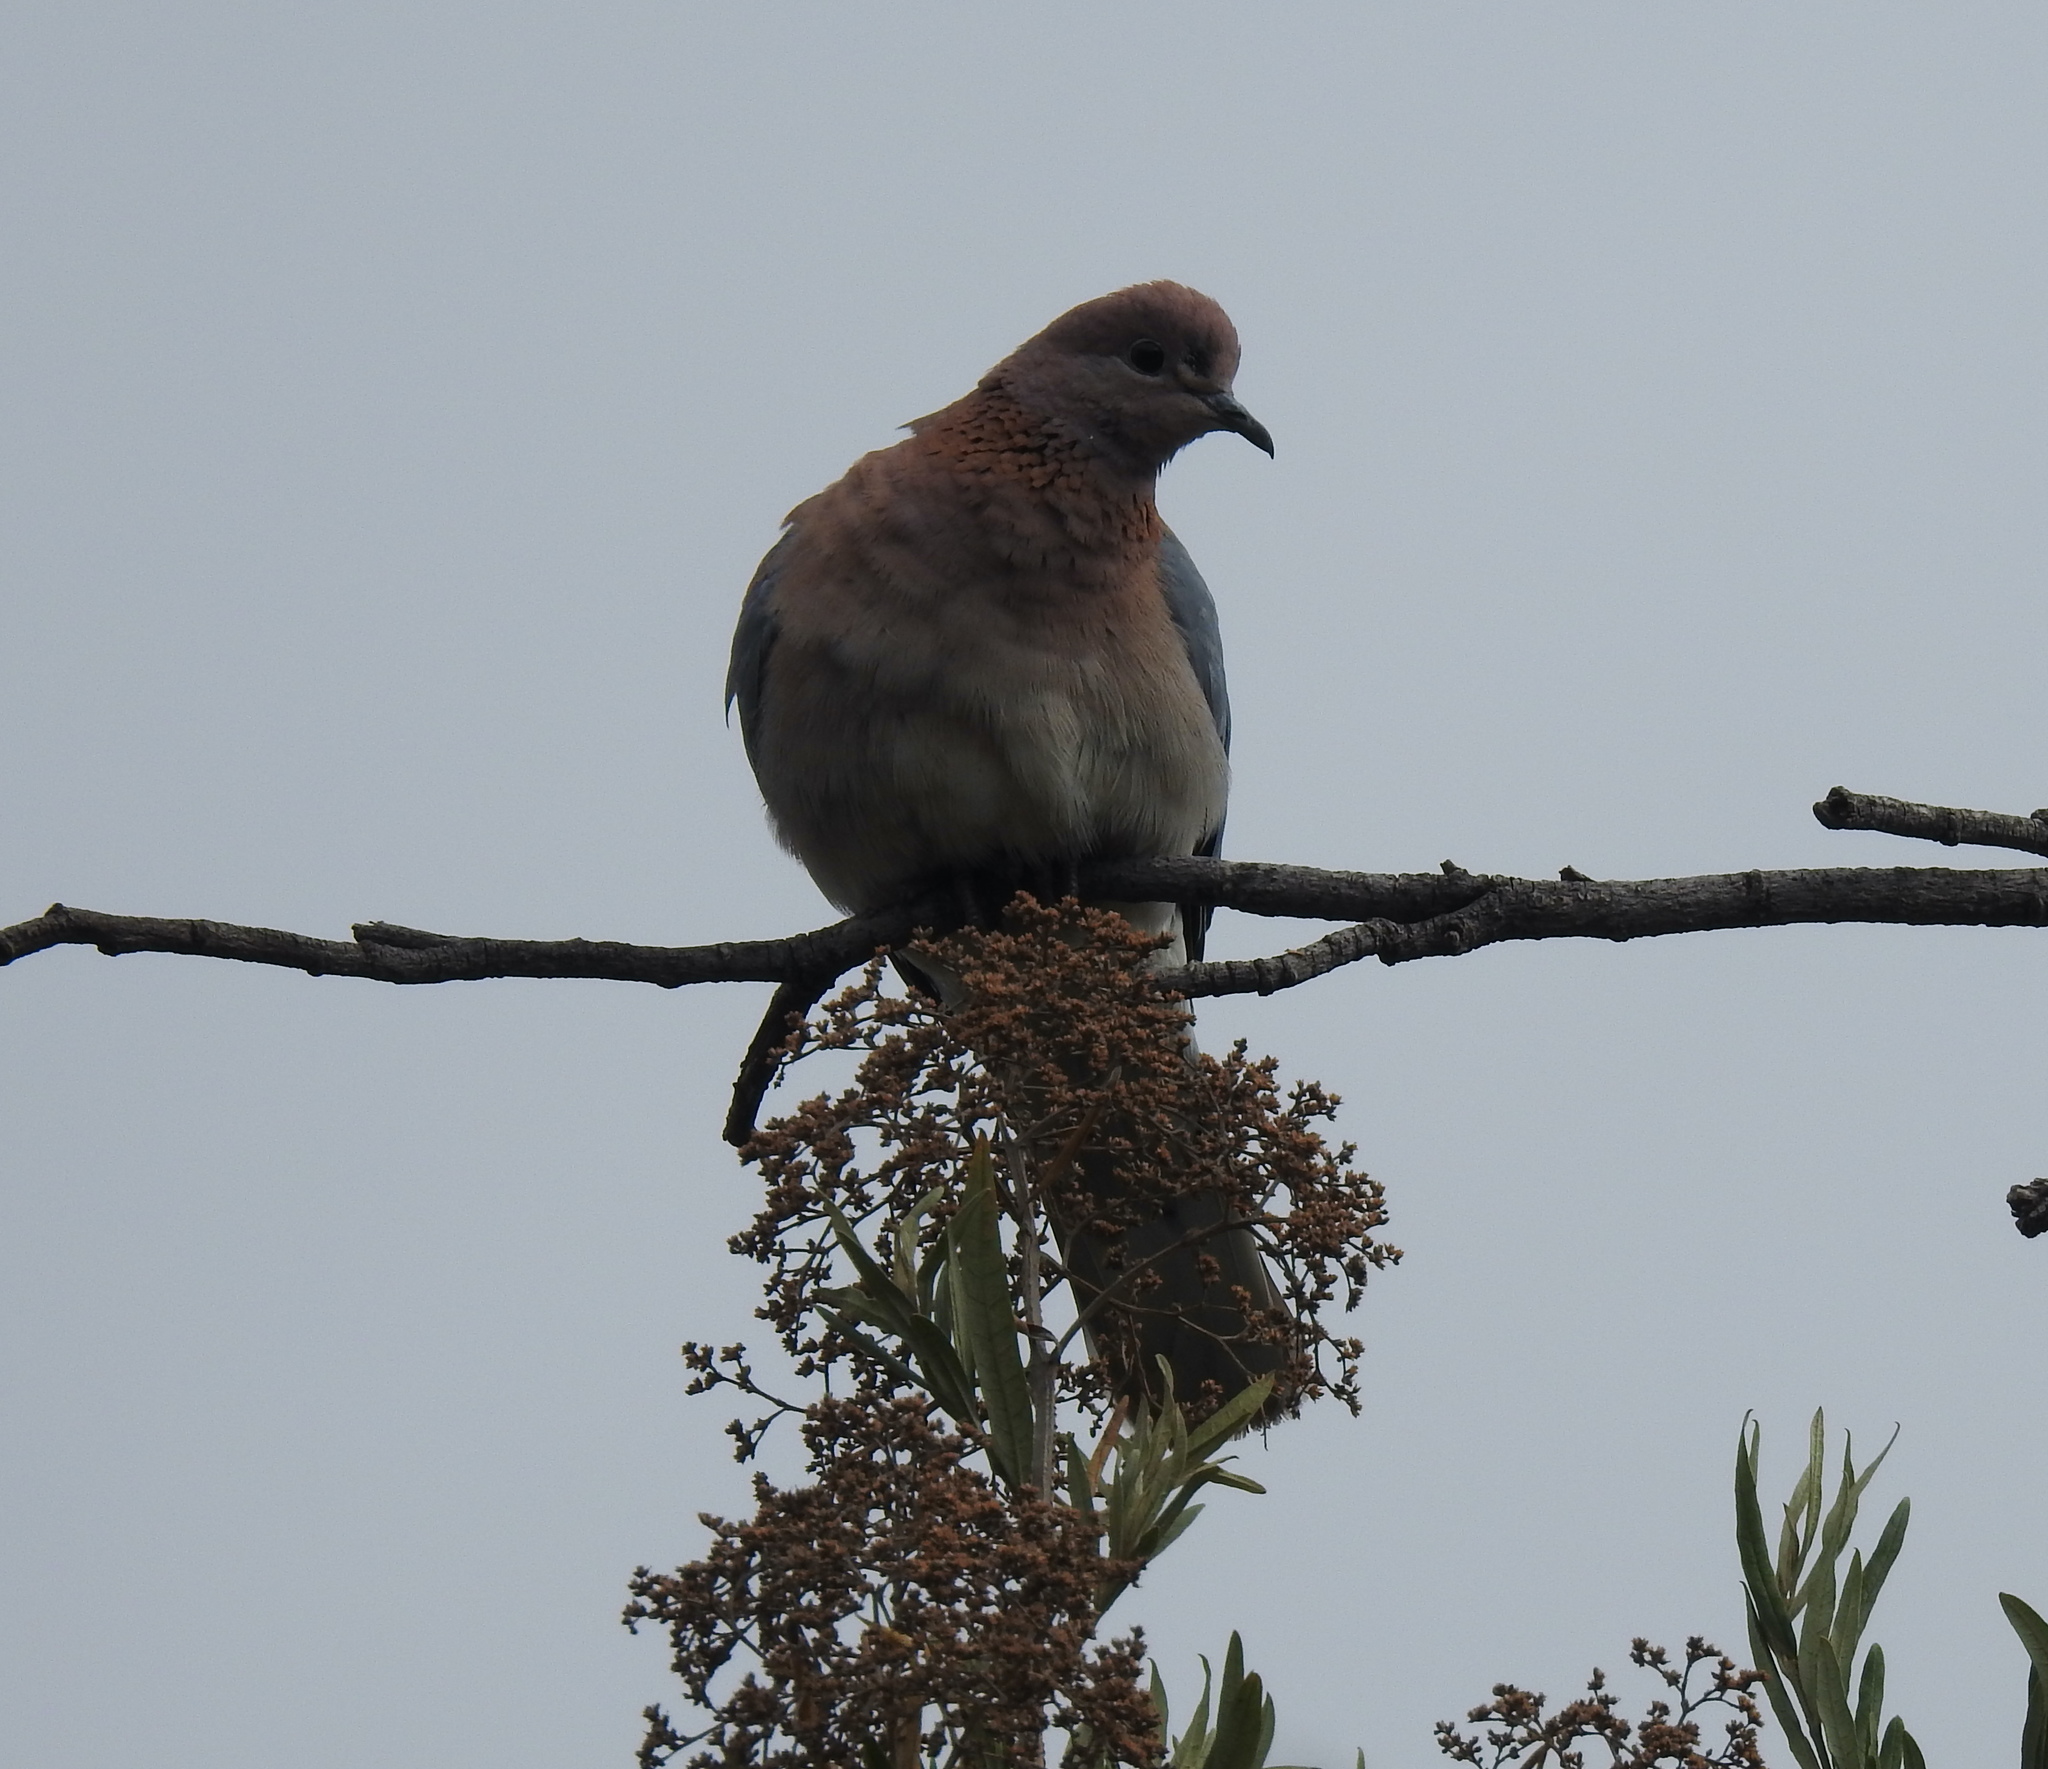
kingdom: Animalia
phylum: Chordata
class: Aves
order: Columbiformes
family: Columbidae
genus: Spilopelia
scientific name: Spilopelia senegalensis
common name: Laughing dove
